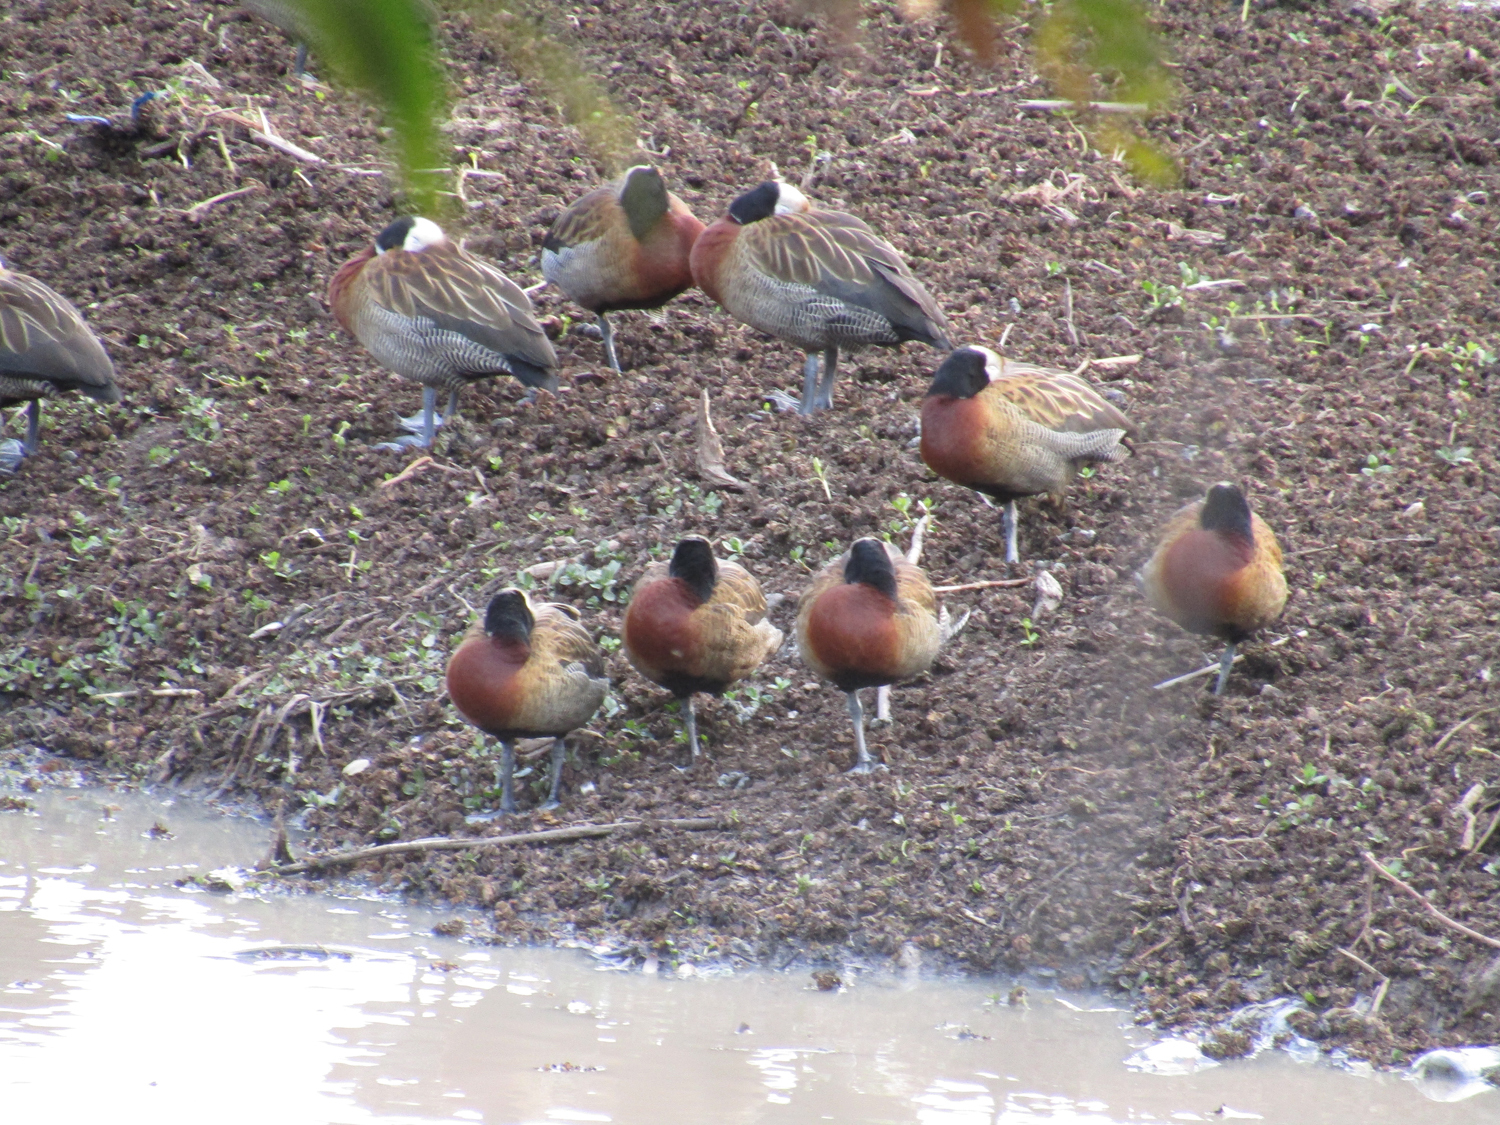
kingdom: Animalia
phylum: Chordata
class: Aves
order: Anseriformes
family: Anatidae
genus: Dendrocygna
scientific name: Dendrocygna viduata
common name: White-faced whistling duck
